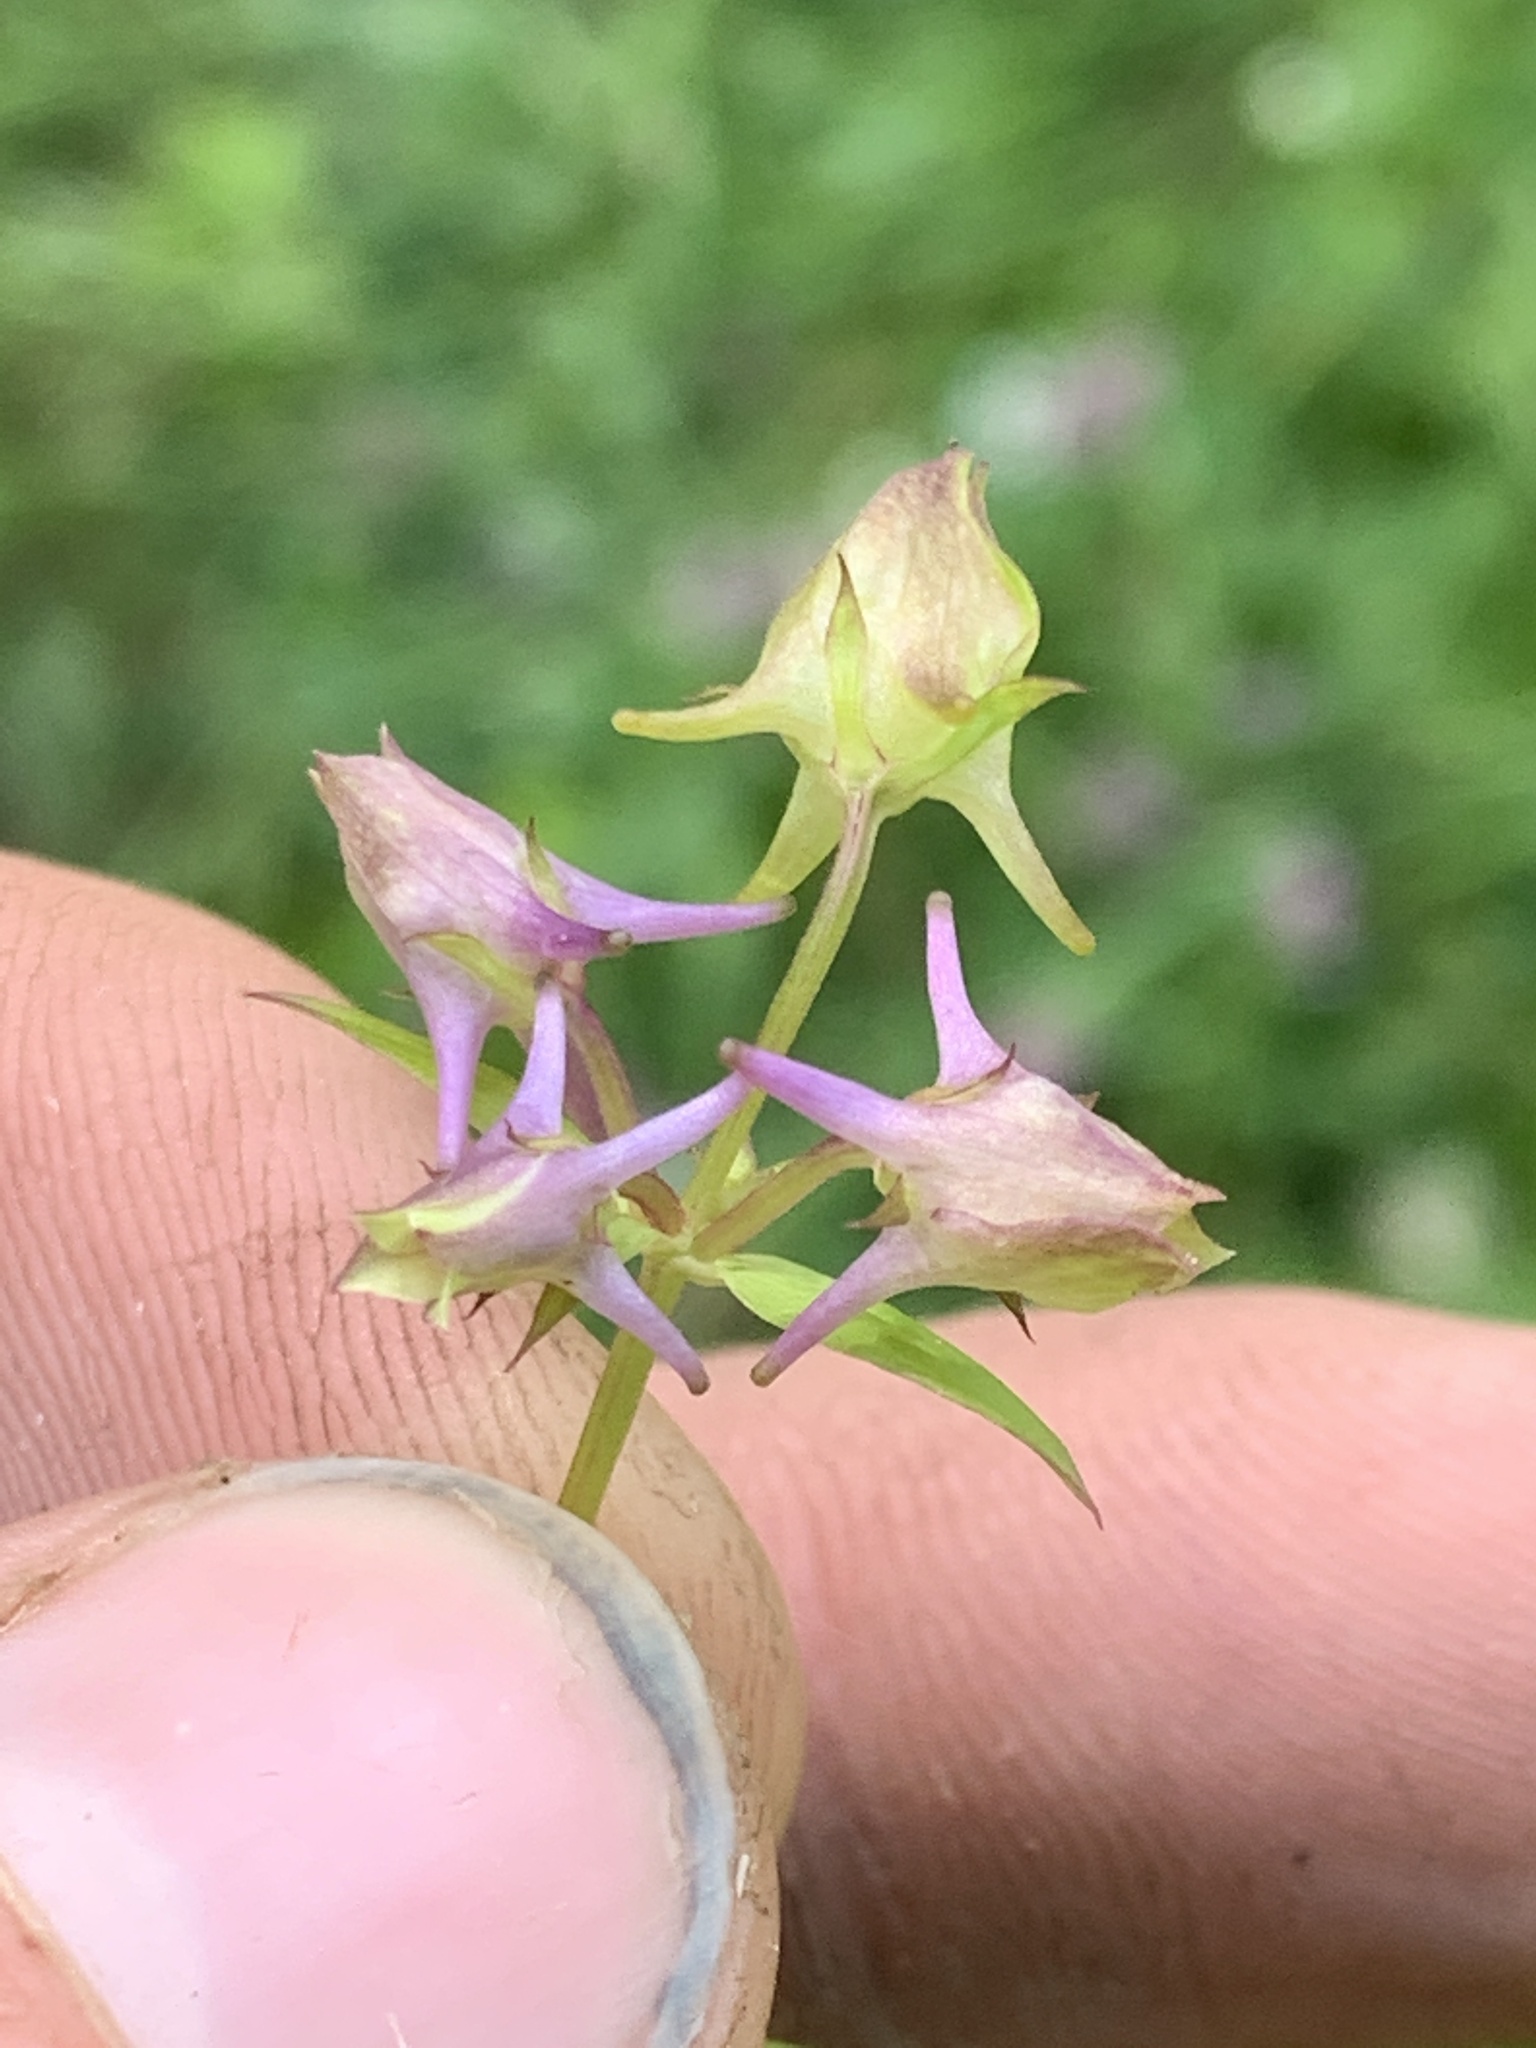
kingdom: Plantae
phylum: Tracheophyta
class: Magnoliopsida
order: Gentianales
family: Gentianaceae
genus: Halenia
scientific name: Halenia deflexa
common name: American spurred gentian
